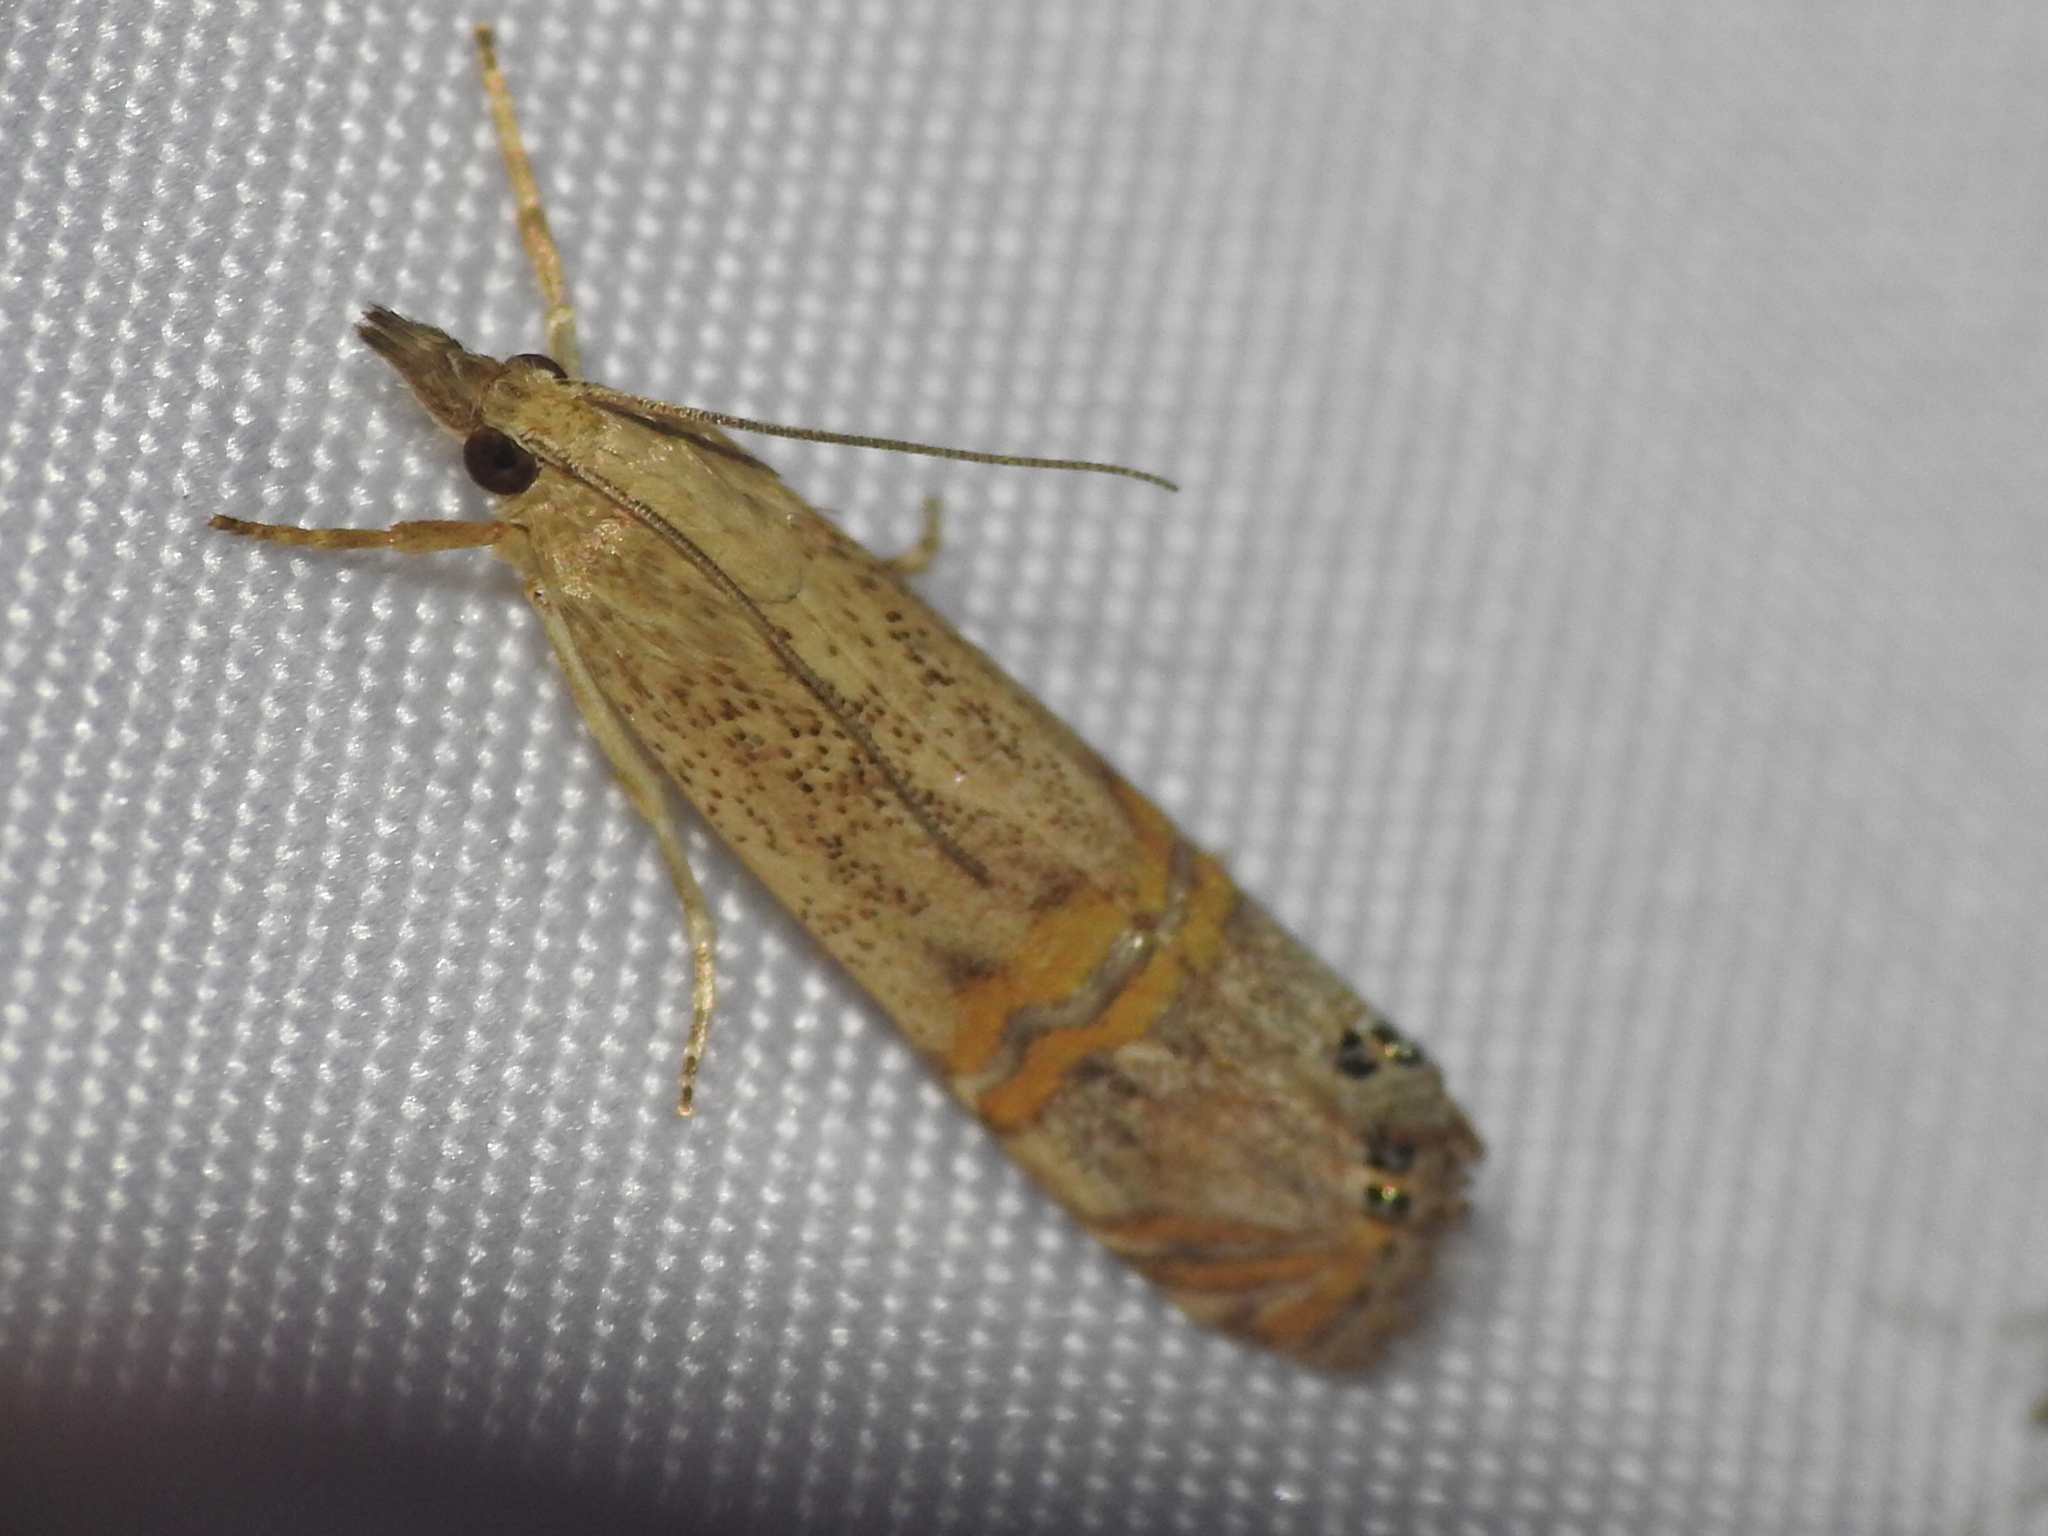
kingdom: Animalia
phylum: Arthropoda
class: Insecta
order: Lepidoptera
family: Crambidae
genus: Euchromius
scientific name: Euchromius ocellea
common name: Necklace veneer moth
